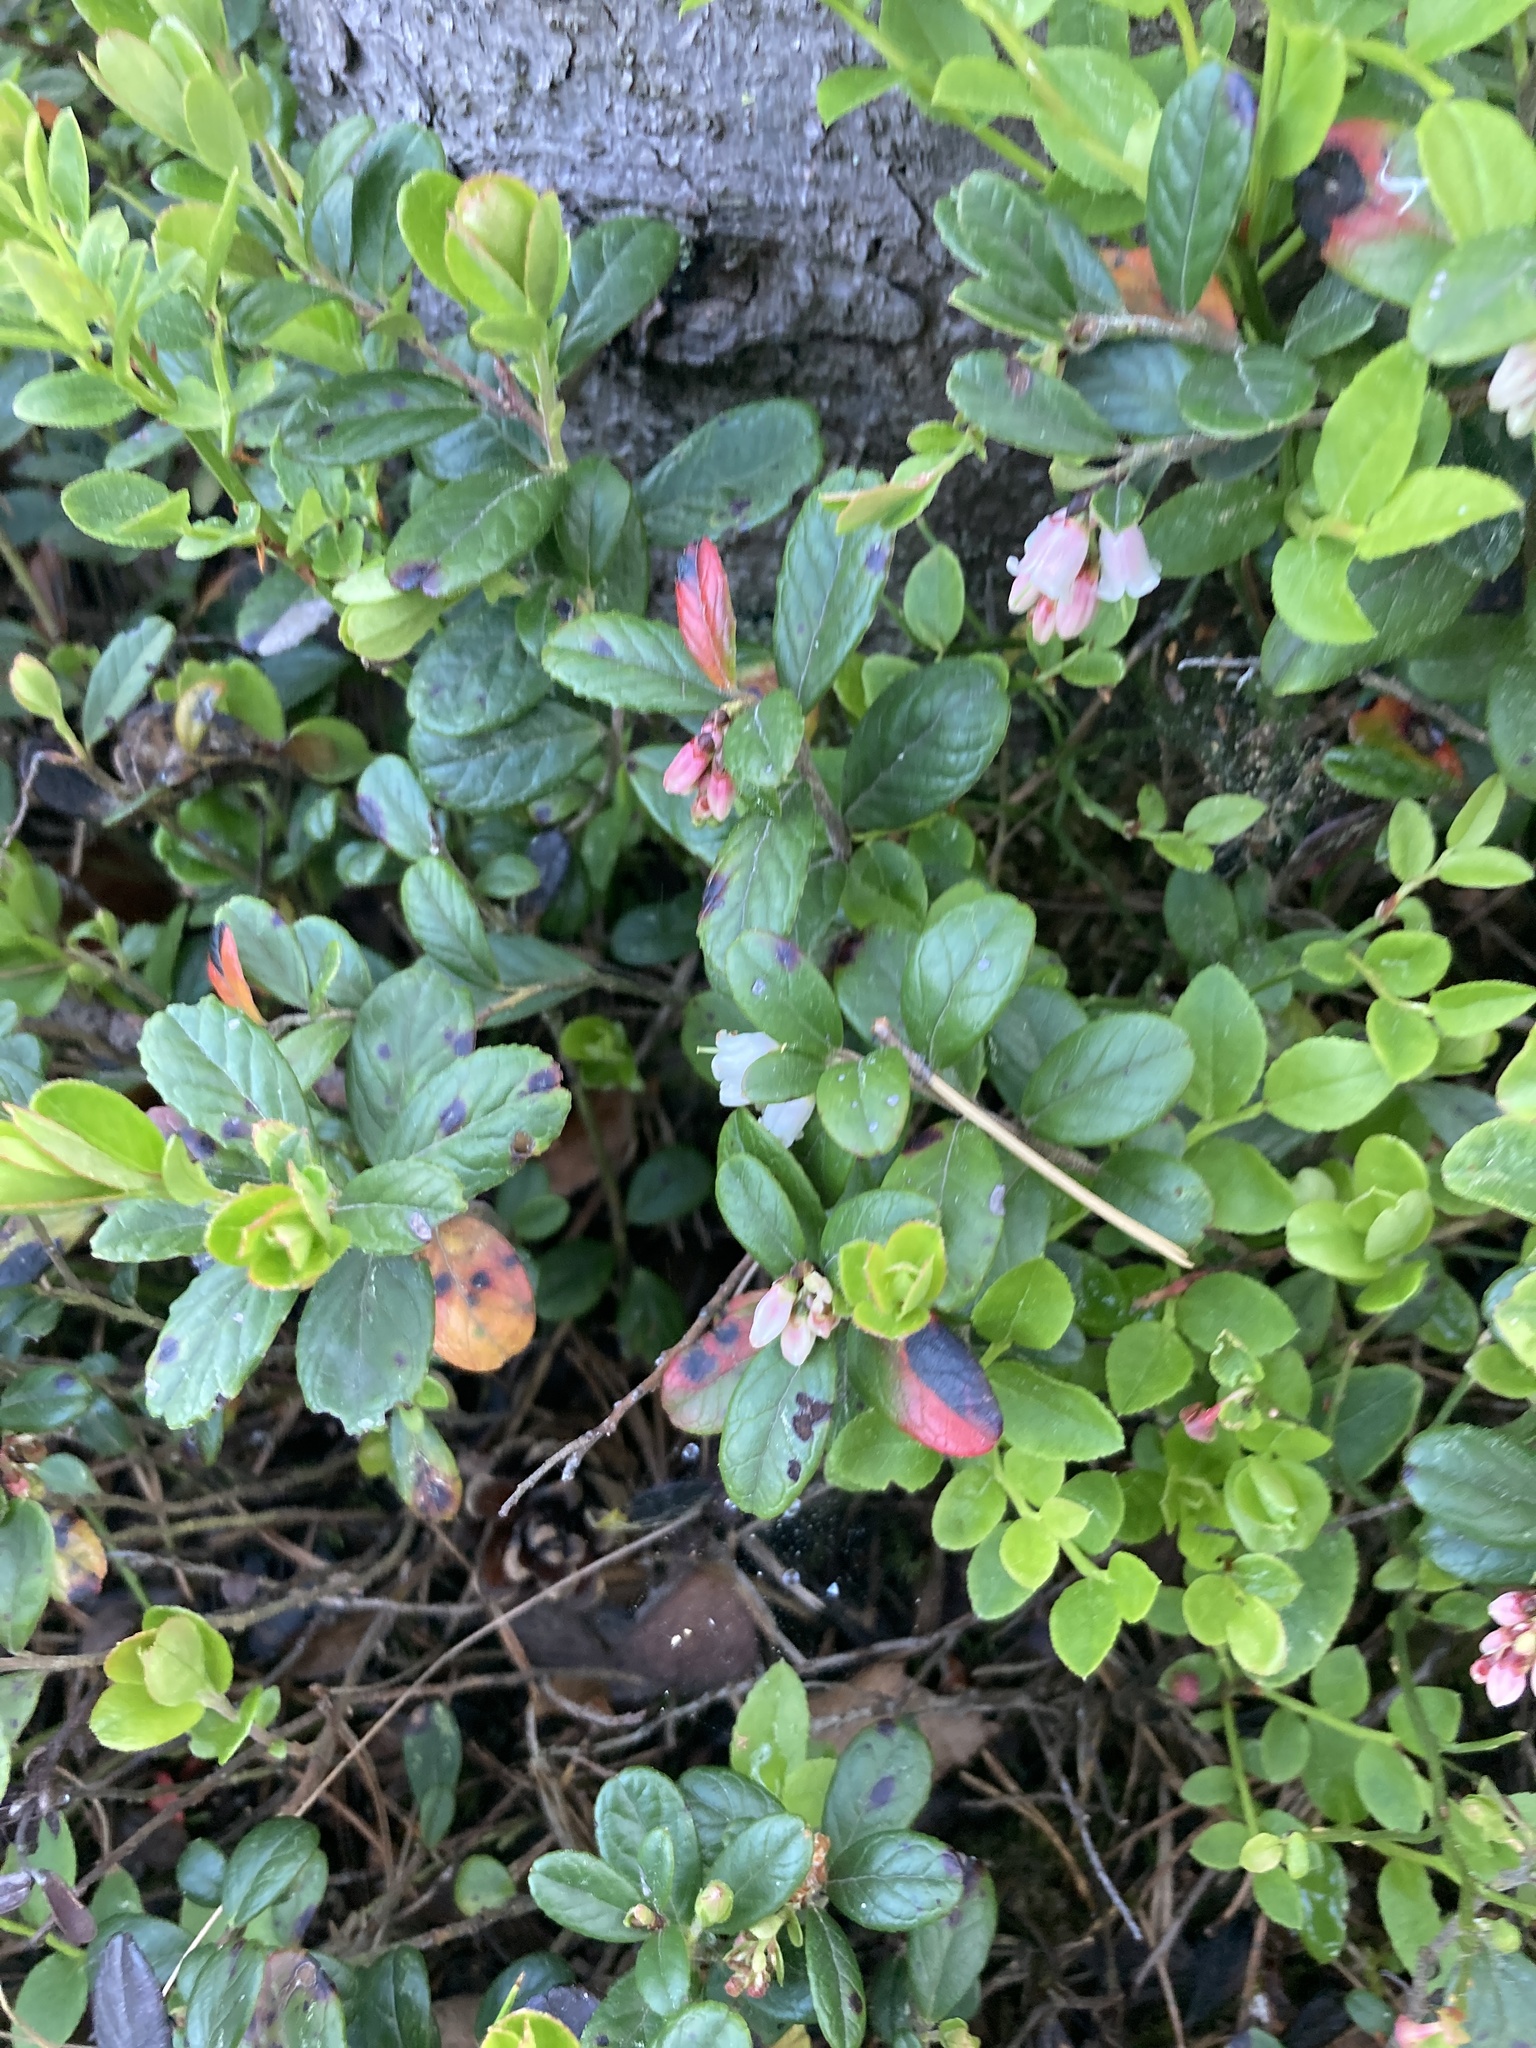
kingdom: Plantae
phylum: Tracheophyta
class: Magnoliopsida
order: Ericales
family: Ericaceae
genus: Vaccinium
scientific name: Vaccinium vitis-idaea
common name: Cowberry
